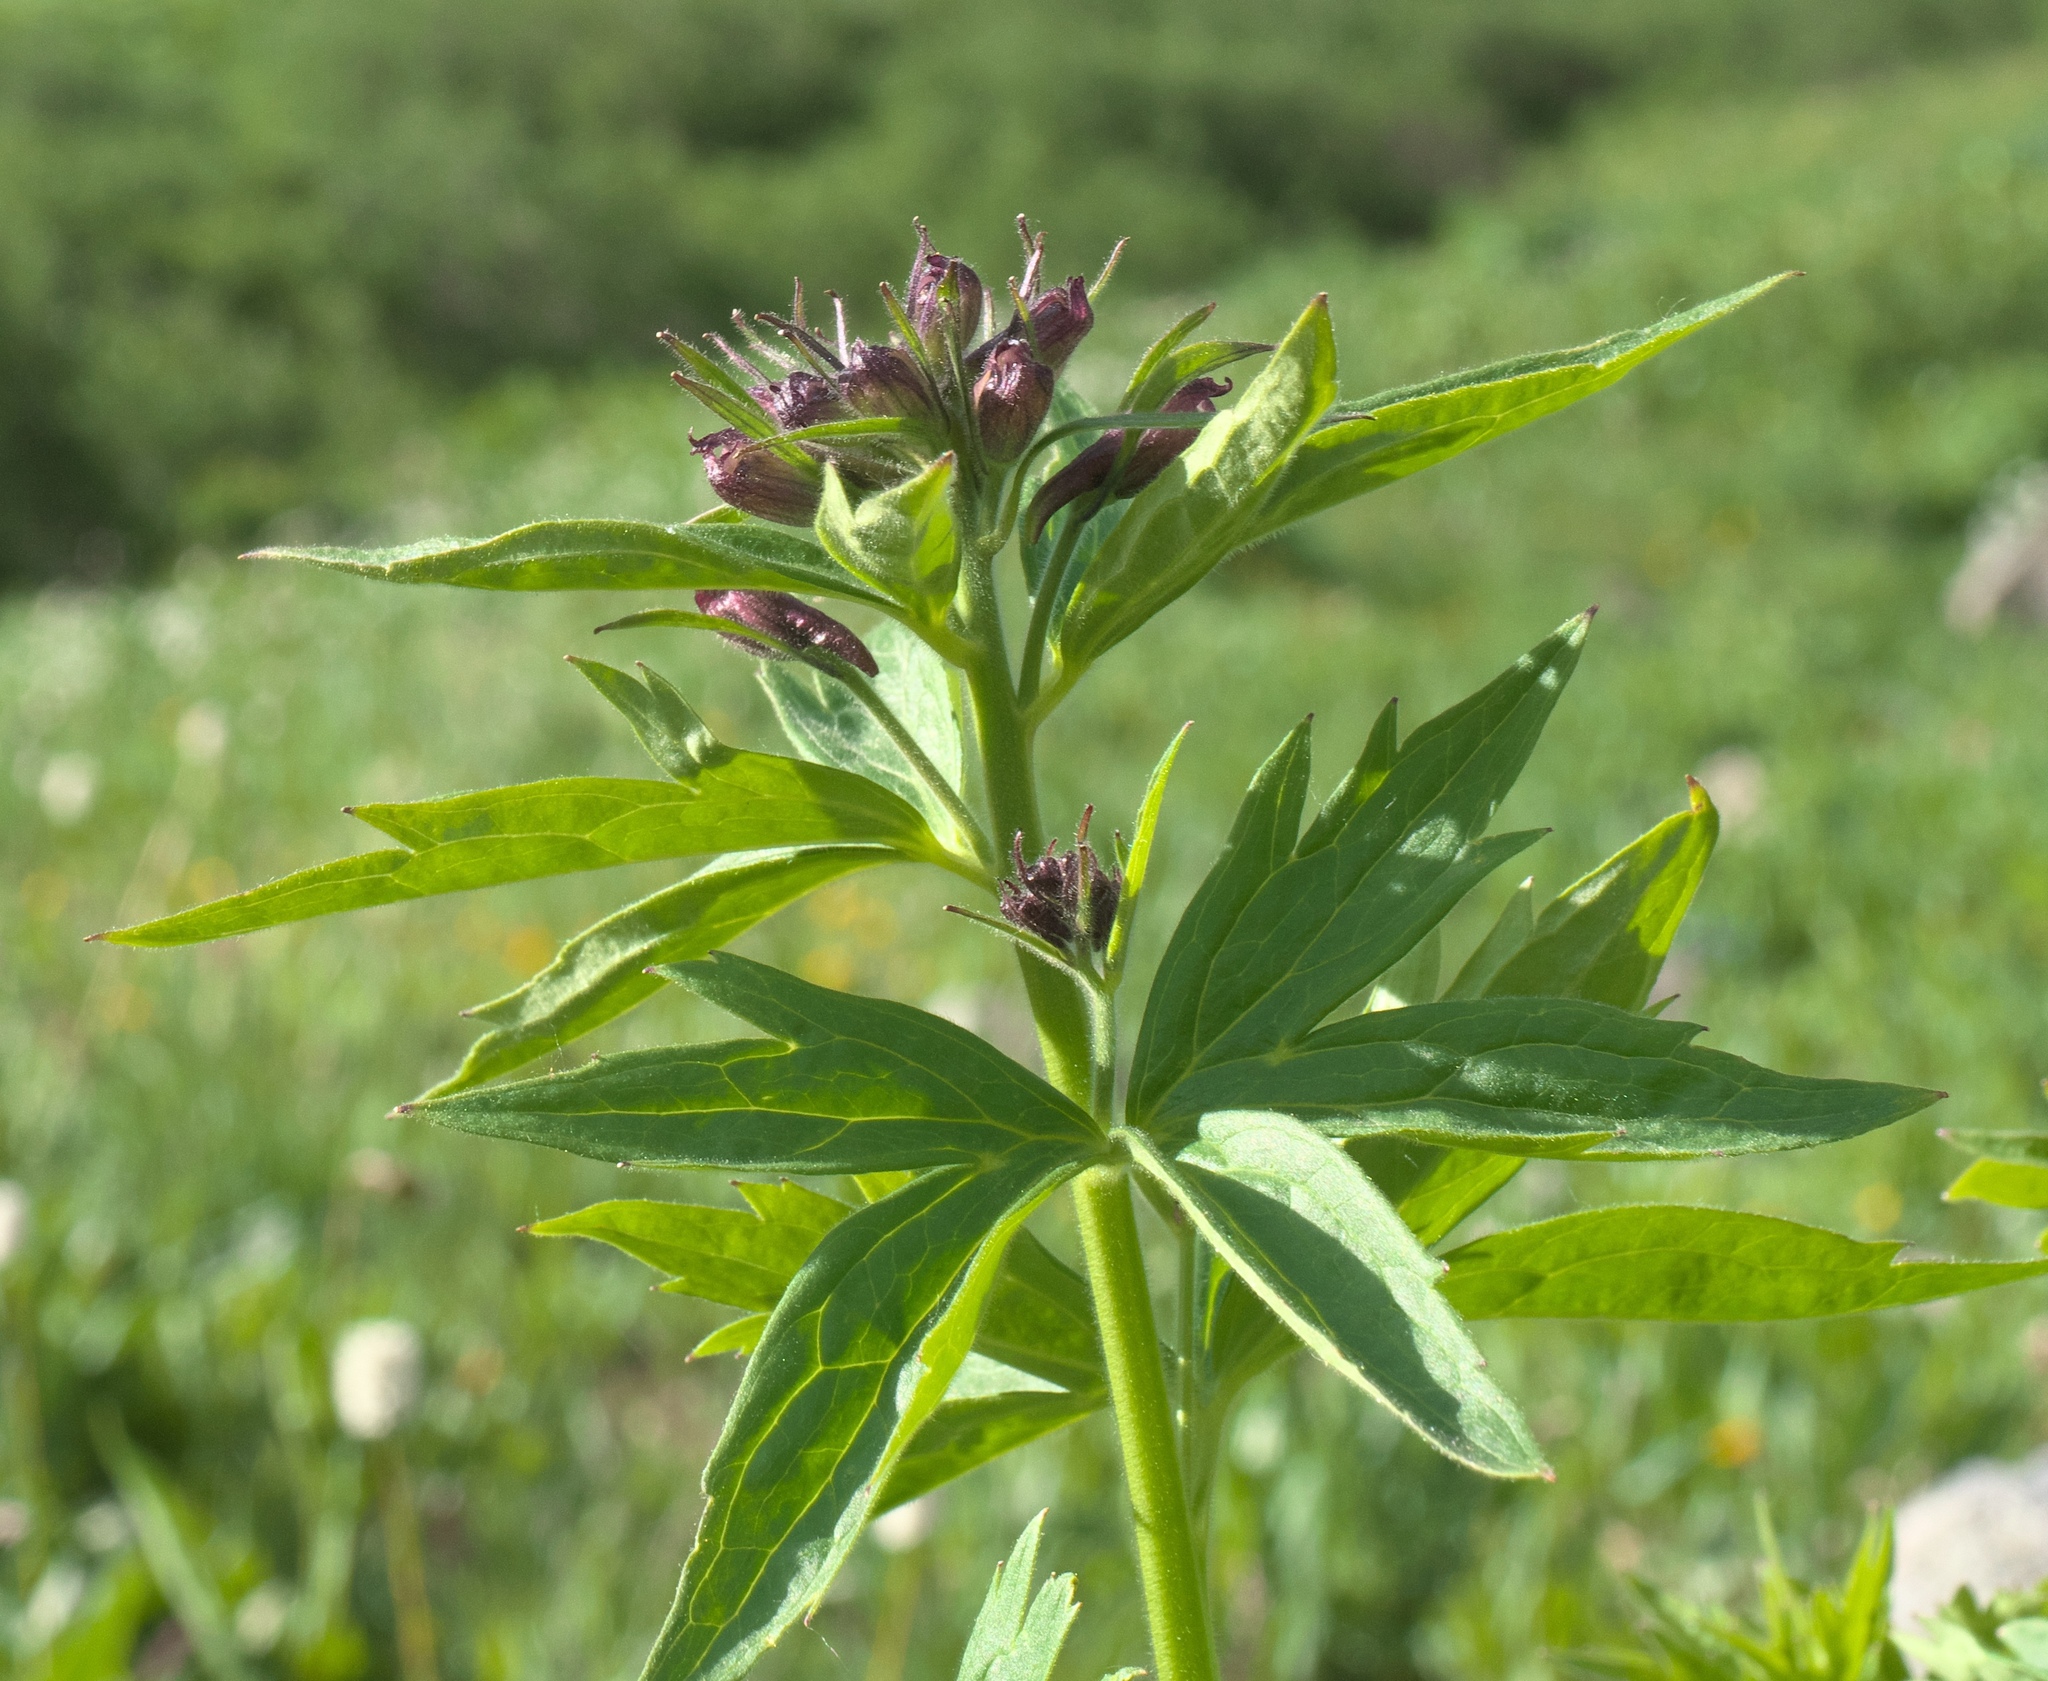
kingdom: Plantae
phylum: Tracheophyta
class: Magnoliopsida
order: Ranunculales
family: Ranunculaceae
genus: Delphinium
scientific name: Delphinium barbeyi
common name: Subalpine larkspur
